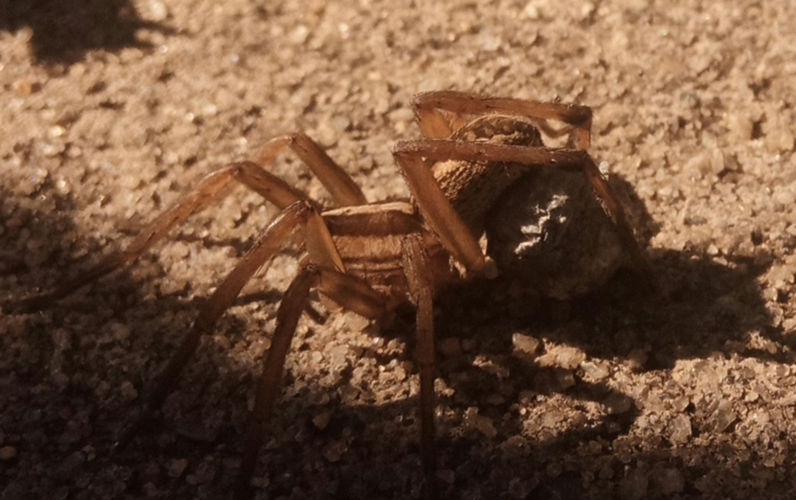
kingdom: Animalia
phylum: Arthropoda
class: Arachnida
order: Araneae
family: Lycosidae
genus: Rabidosa
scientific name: Rabidosa rabida
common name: Rabid wolf spider
